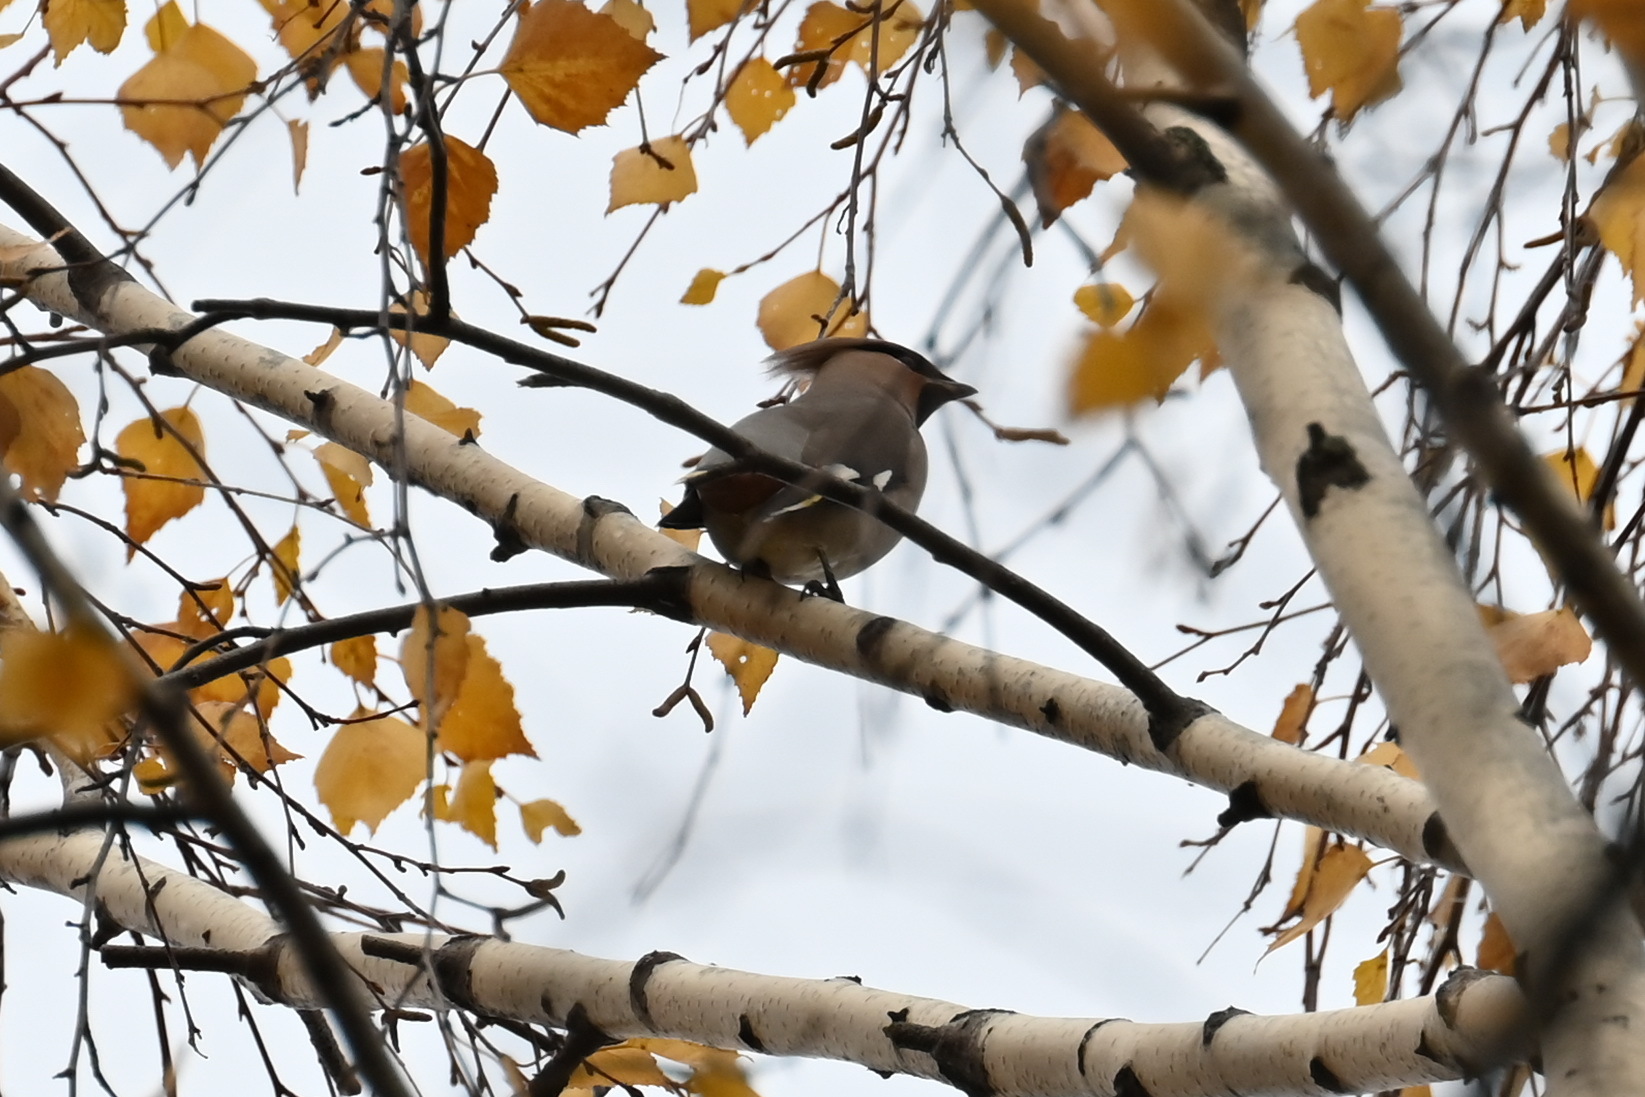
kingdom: Animalia
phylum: Chordata
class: Aves
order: Passeriformes
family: Bombycillidae
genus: Bombycilla
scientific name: Bombycilla garrulus
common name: Bohemian waxwing
